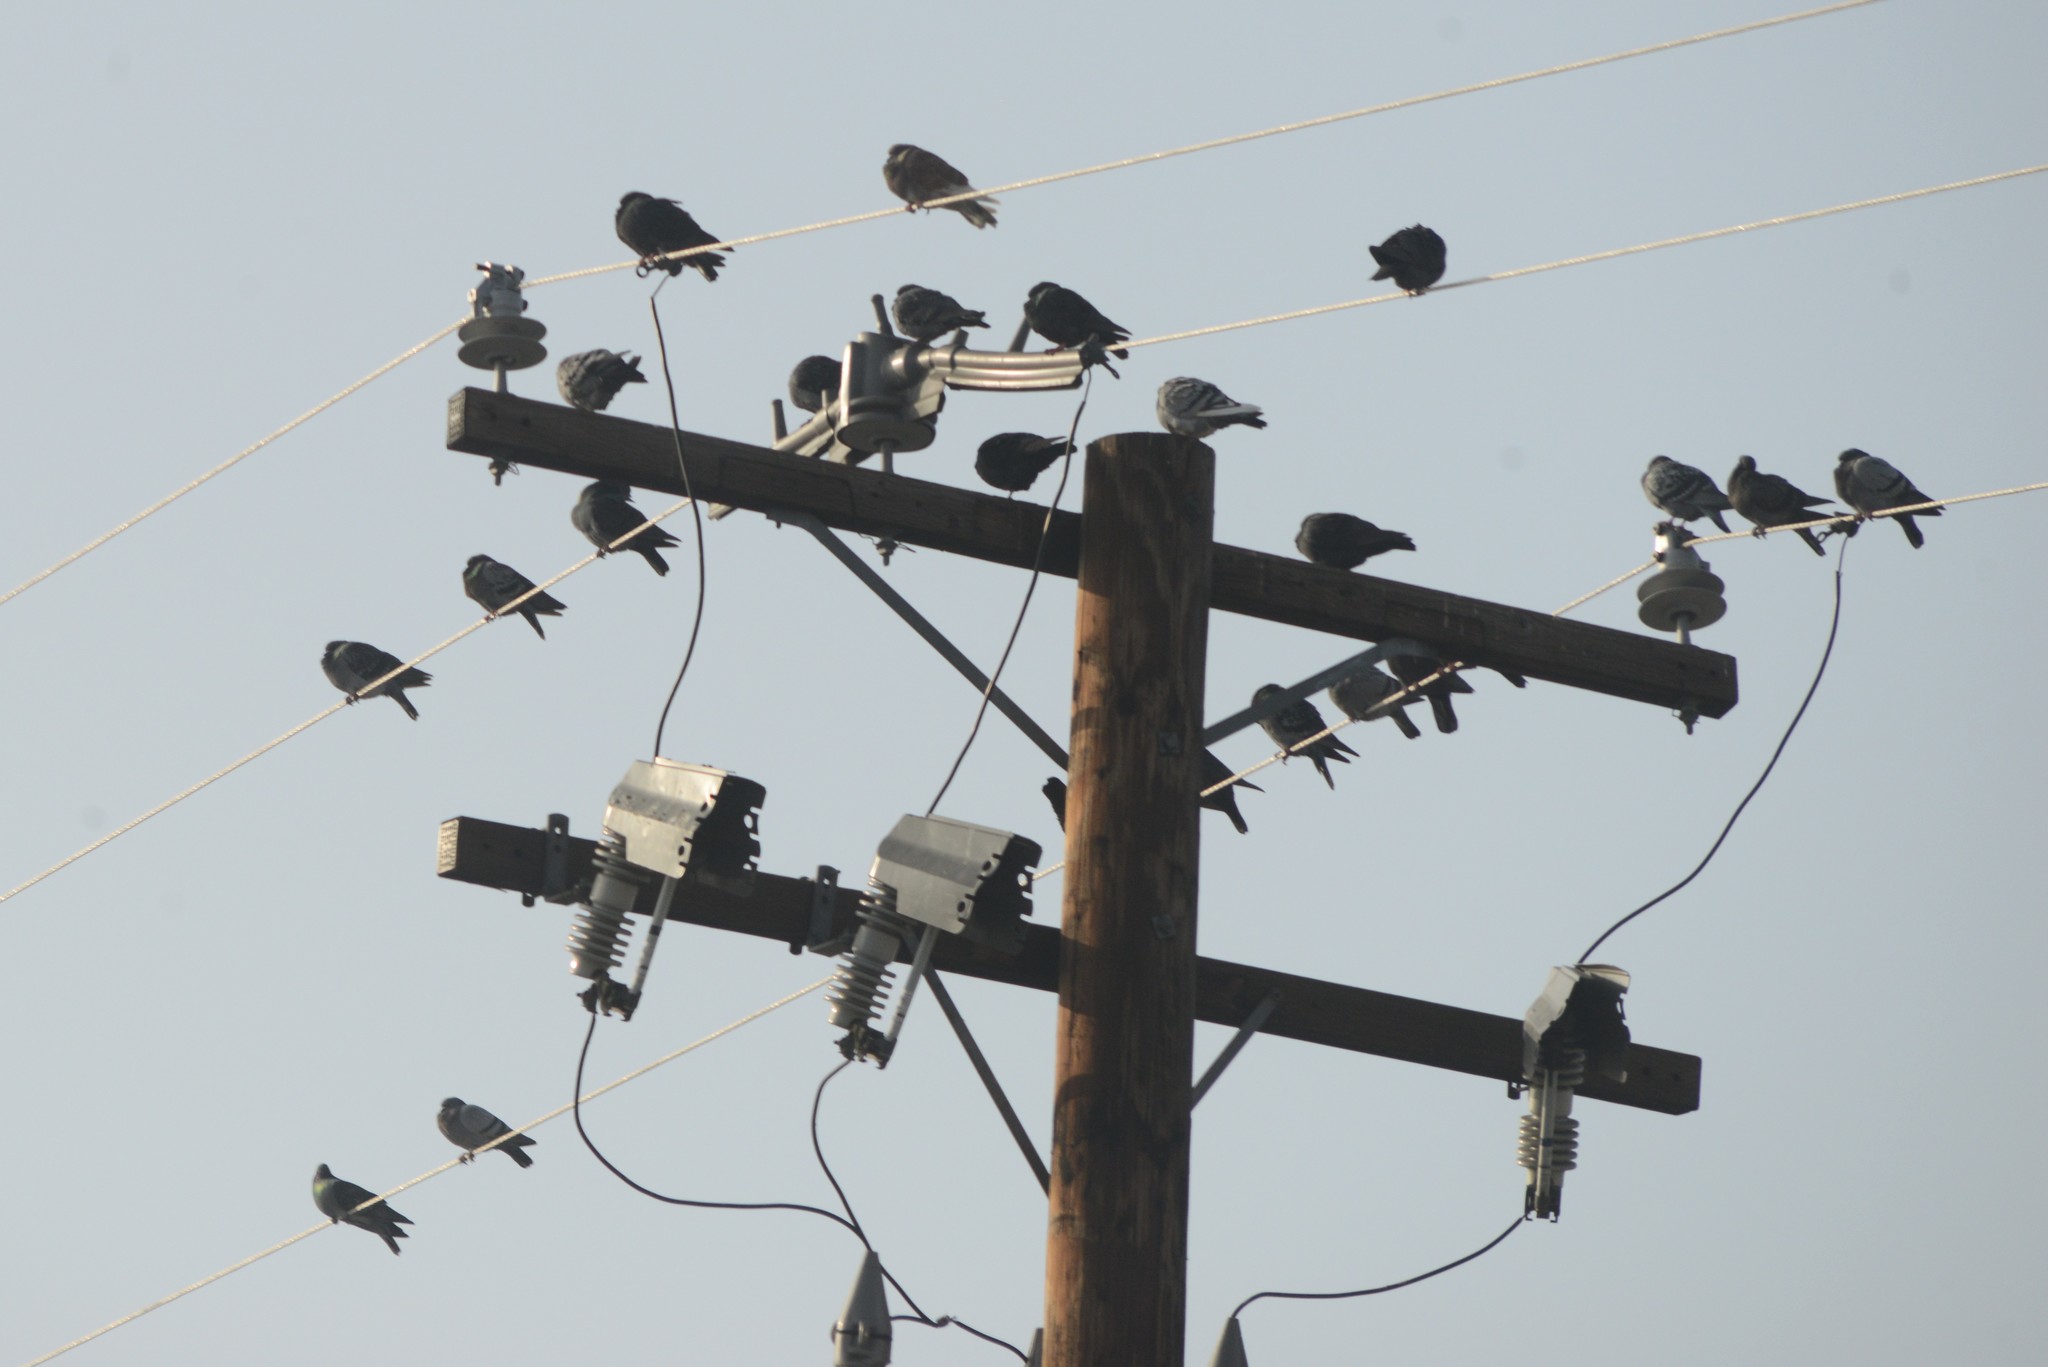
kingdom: Animalia
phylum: Chordata
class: Aves
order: Columbiformes
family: Columbidae
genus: Columba
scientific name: Columba livia
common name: Rock pigeon
